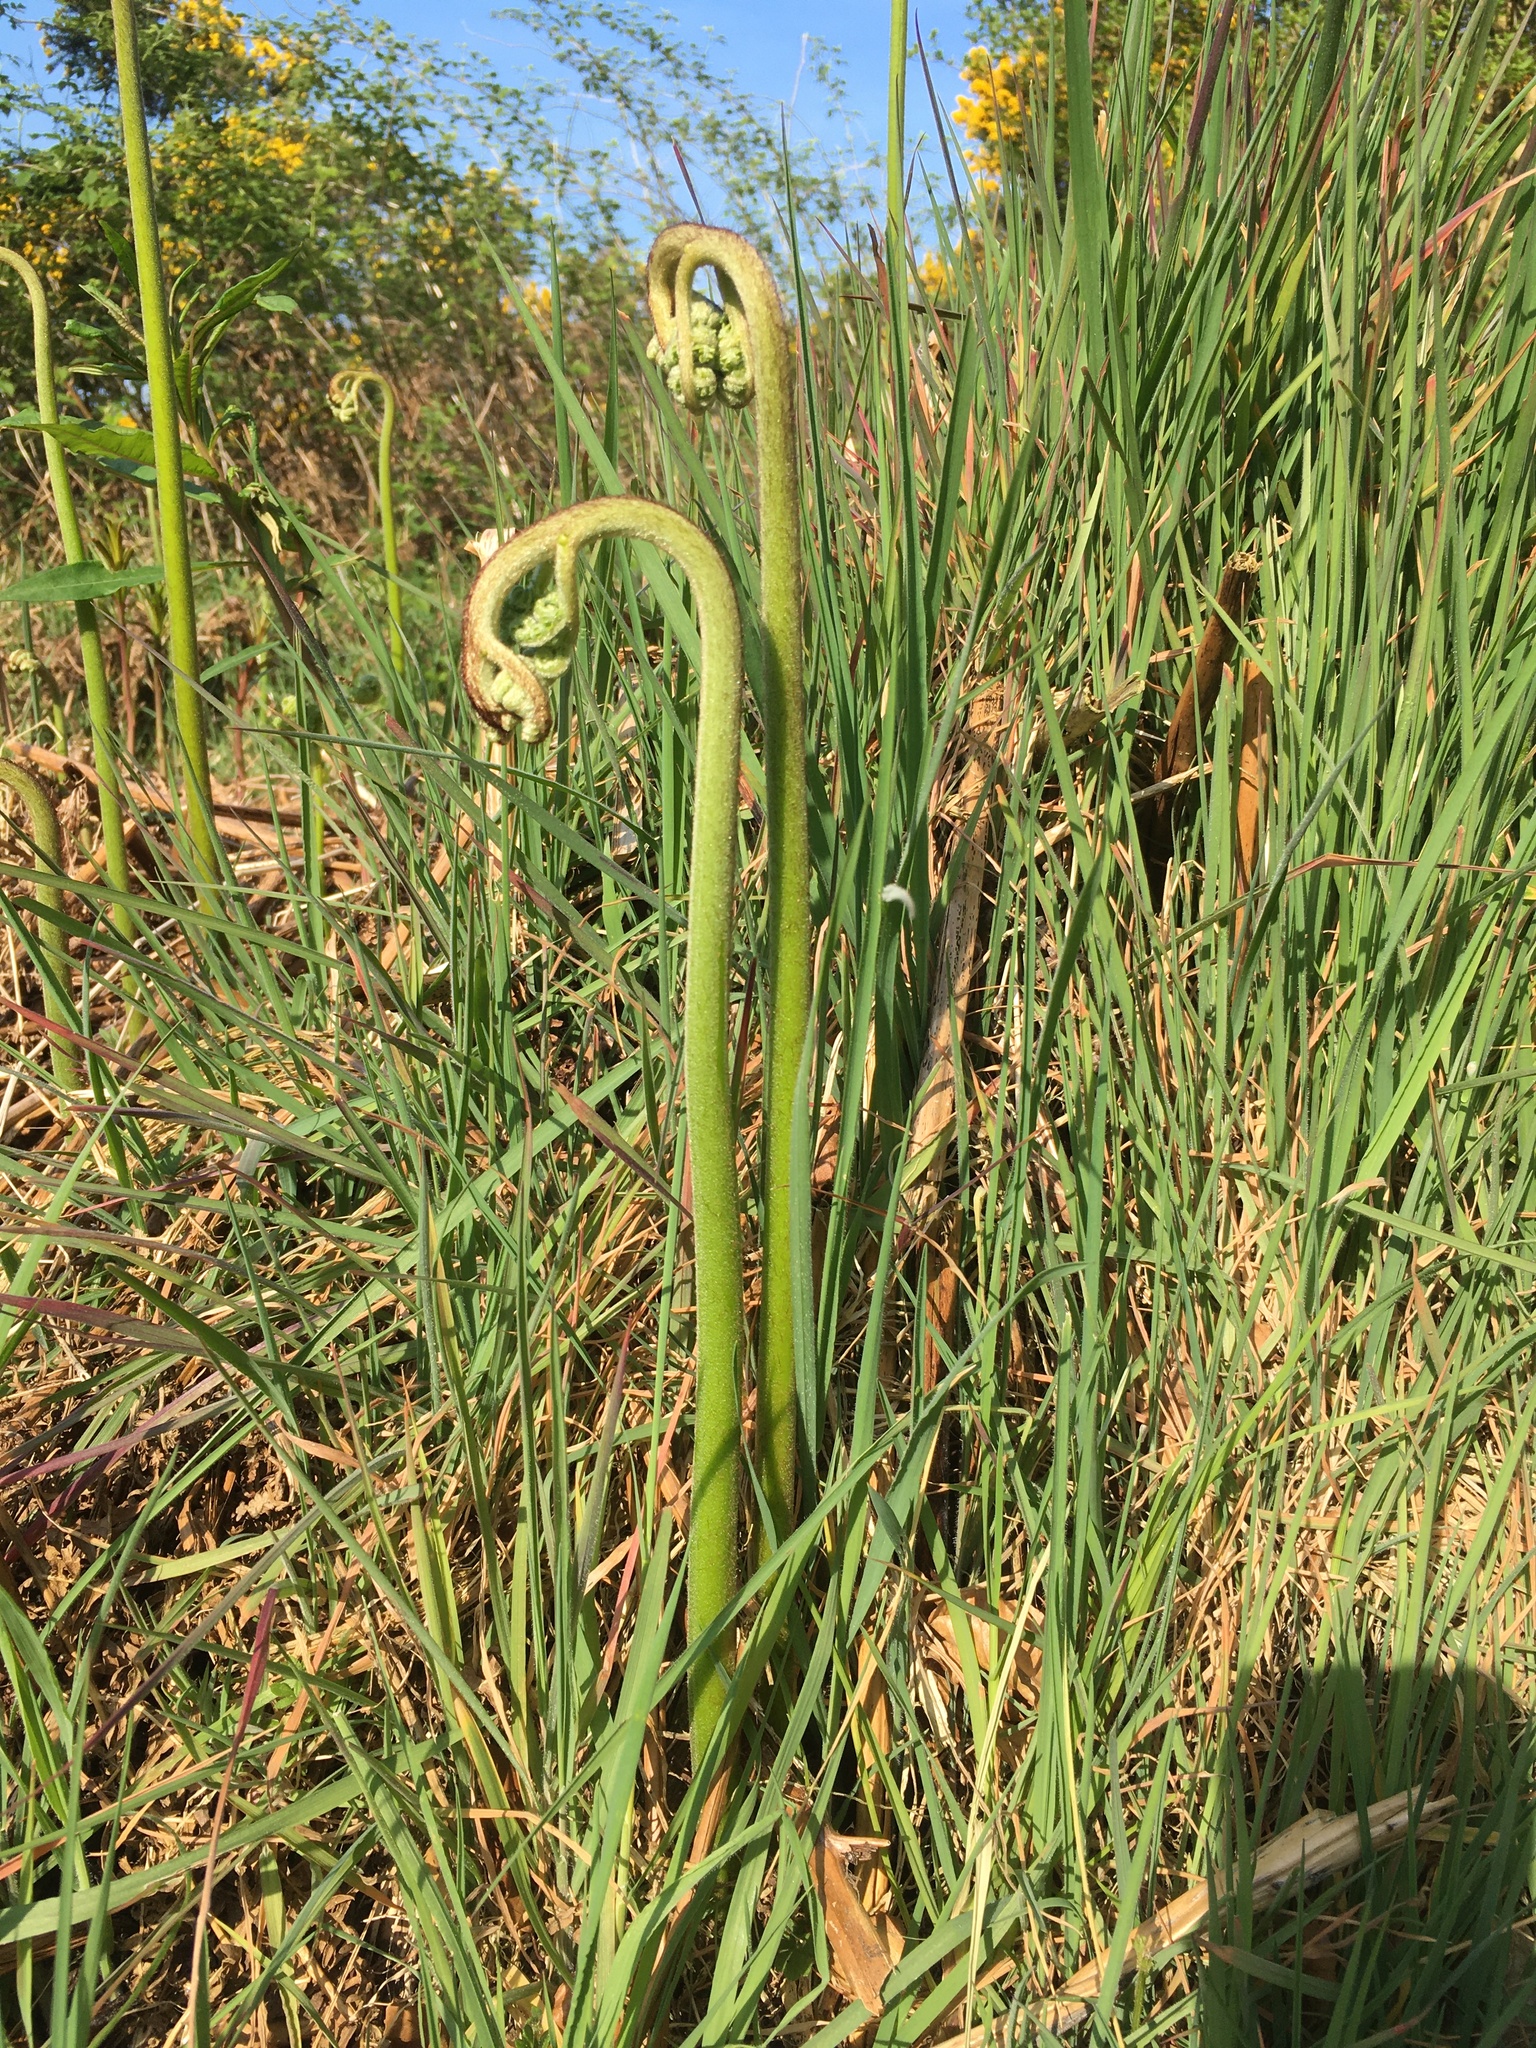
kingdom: Plantae
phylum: Tracheophyta
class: Polypodiopsida
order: Polypodiales
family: Dennstaedtiaceae
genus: Pteridium
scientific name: Pteridium aquilinum
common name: Bracken
